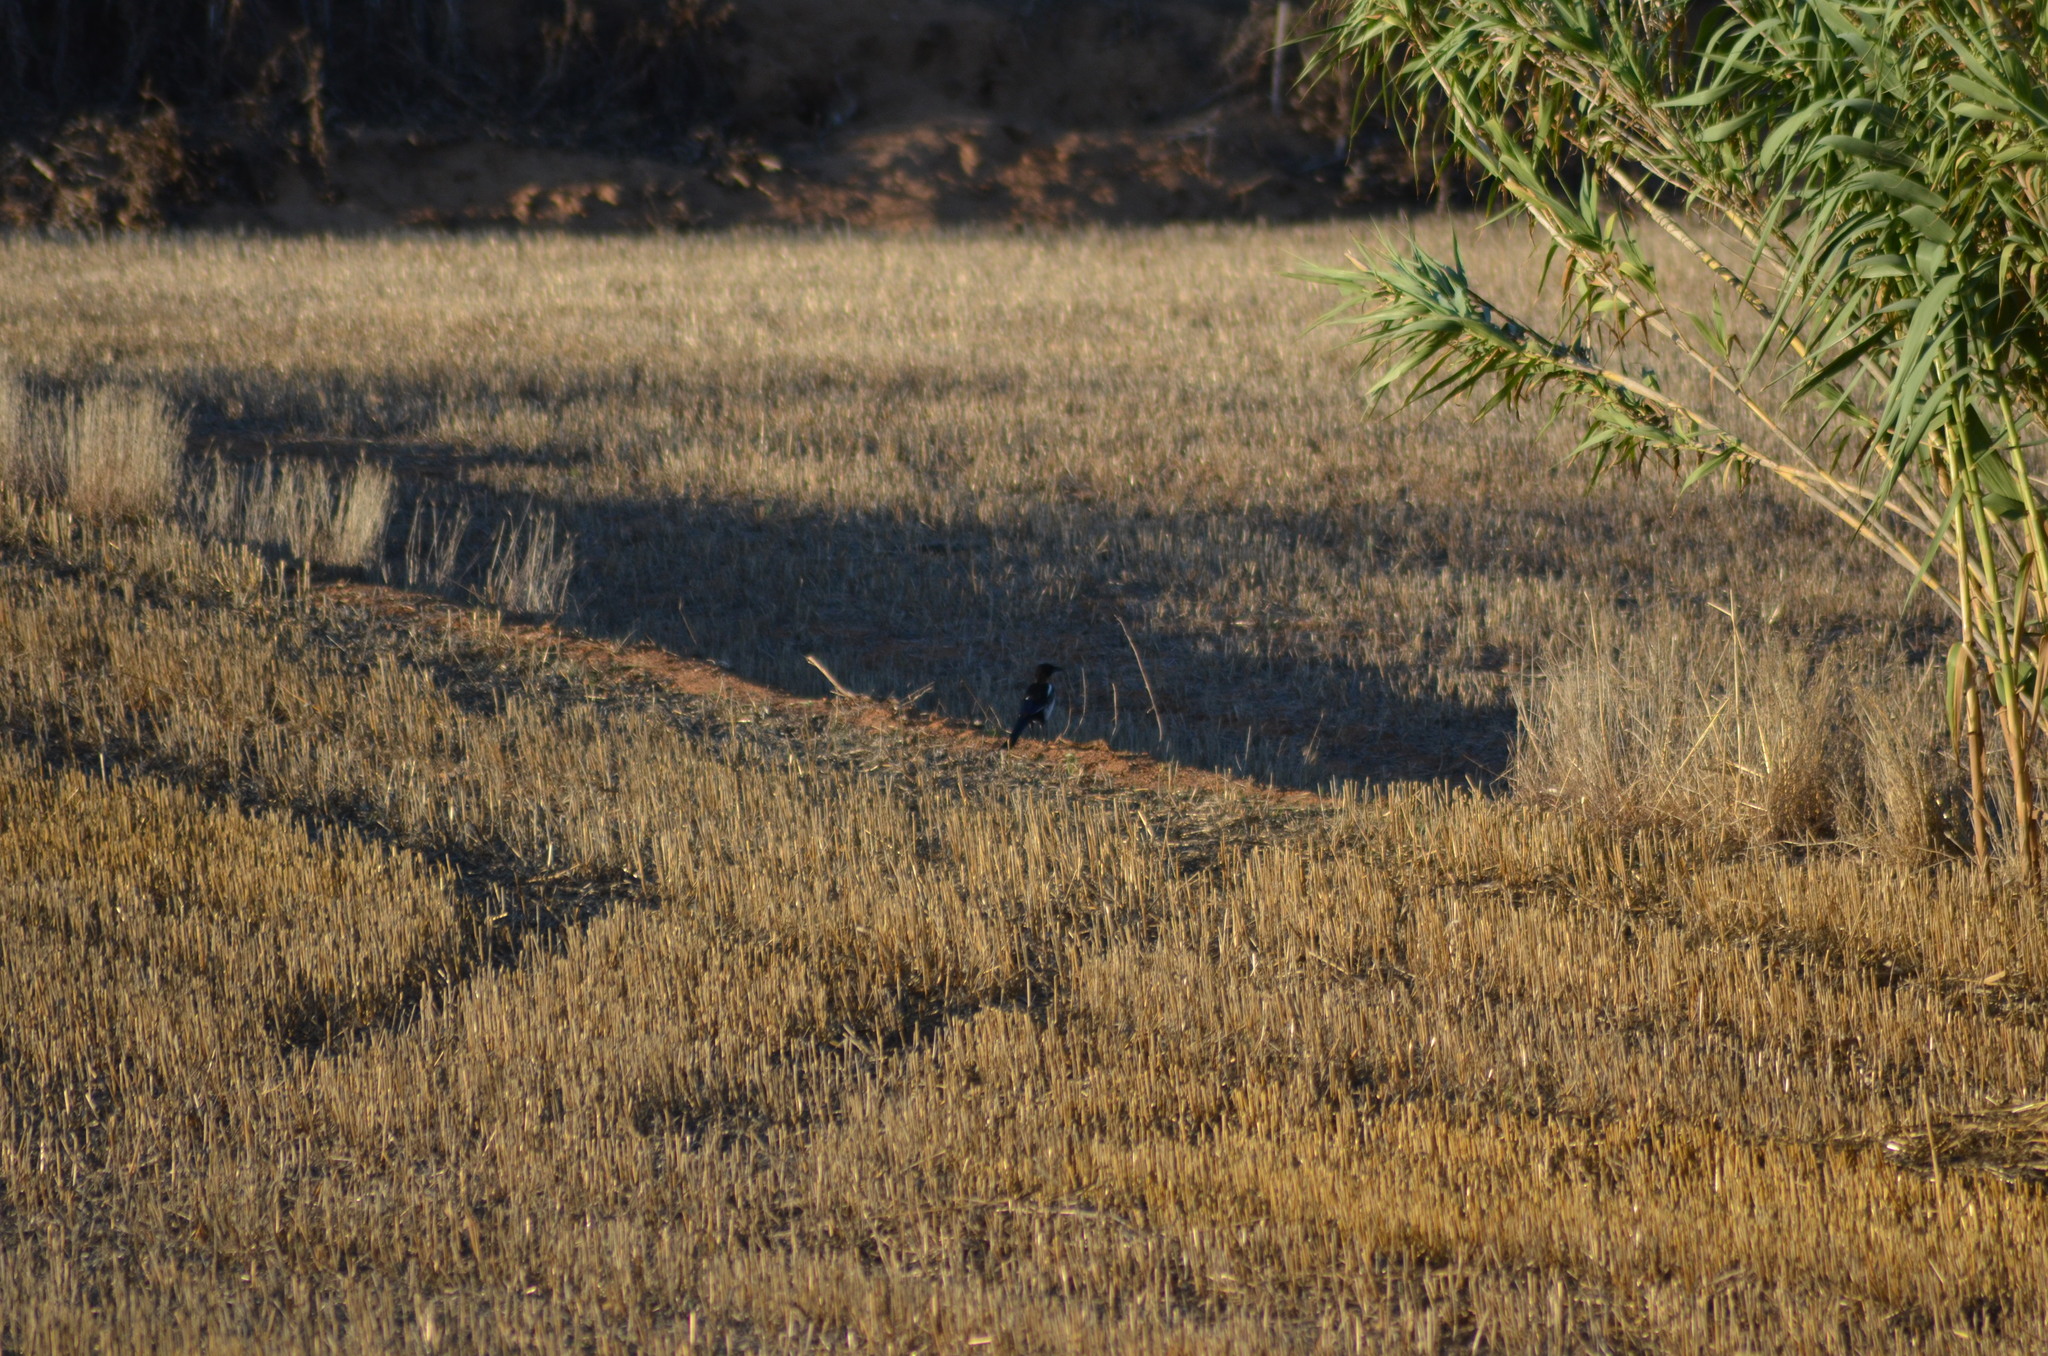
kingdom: Animalia
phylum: Chordata
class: Aves
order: Passeriformes
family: Corvidae
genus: Pica
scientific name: Pica pica
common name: Eurasian magpie
